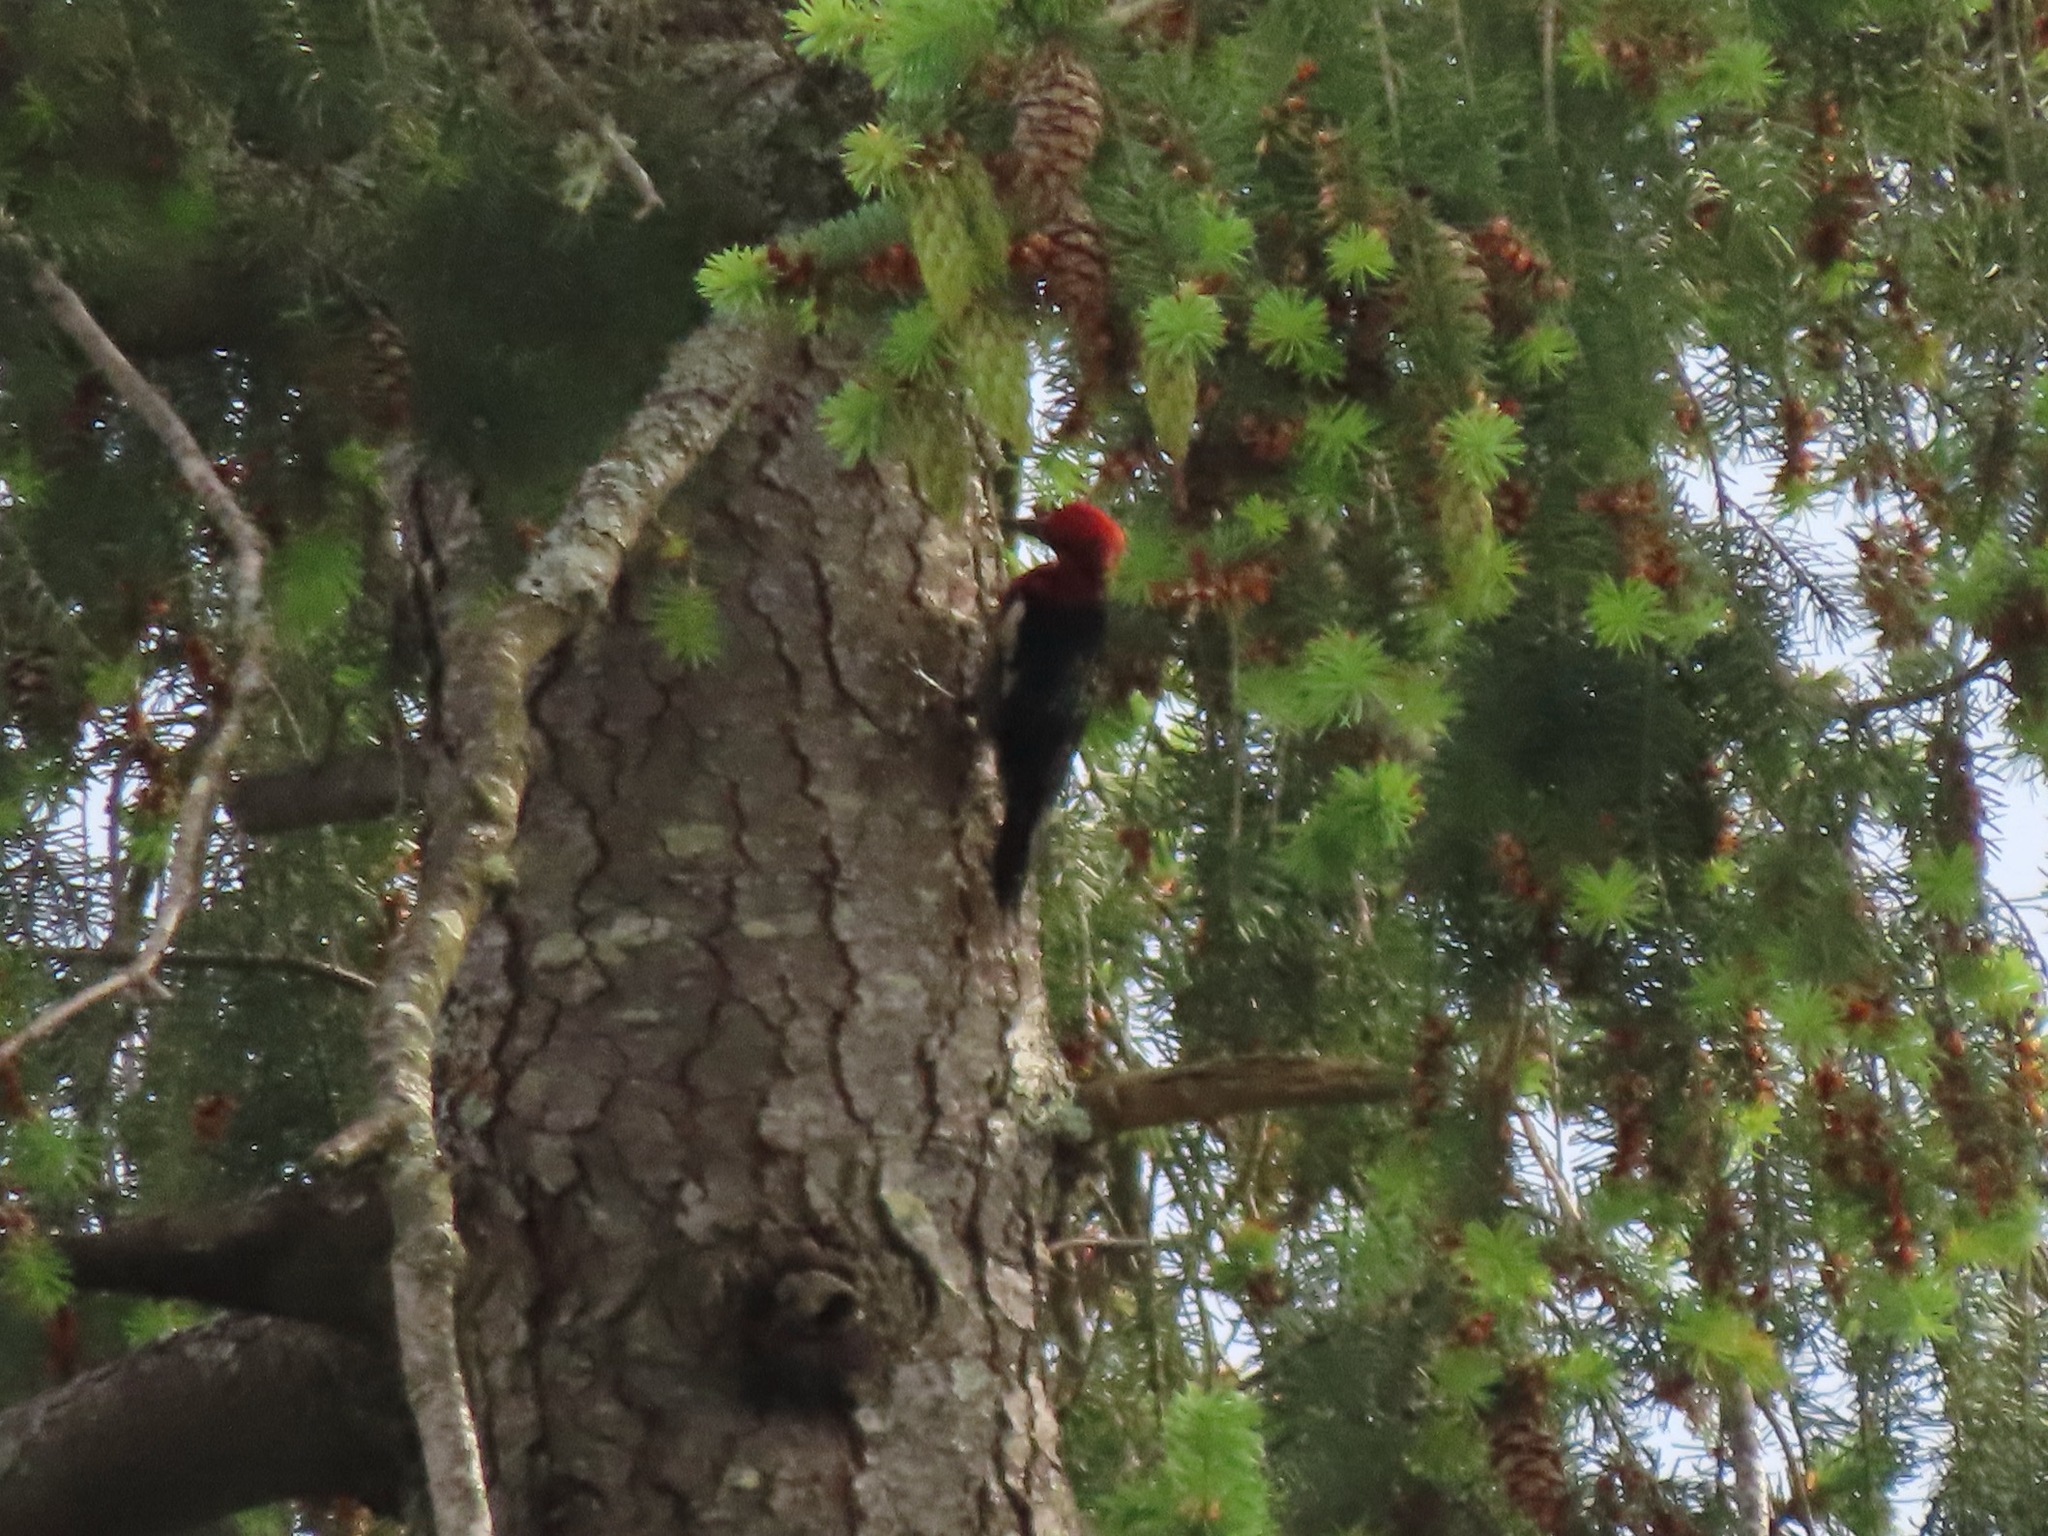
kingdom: Animalia
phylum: Chordata
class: Aves
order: Piciformes
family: Picidae
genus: Sphyrapicus
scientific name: Sphyrapicus ruber
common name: Red-breasted sapsucker
